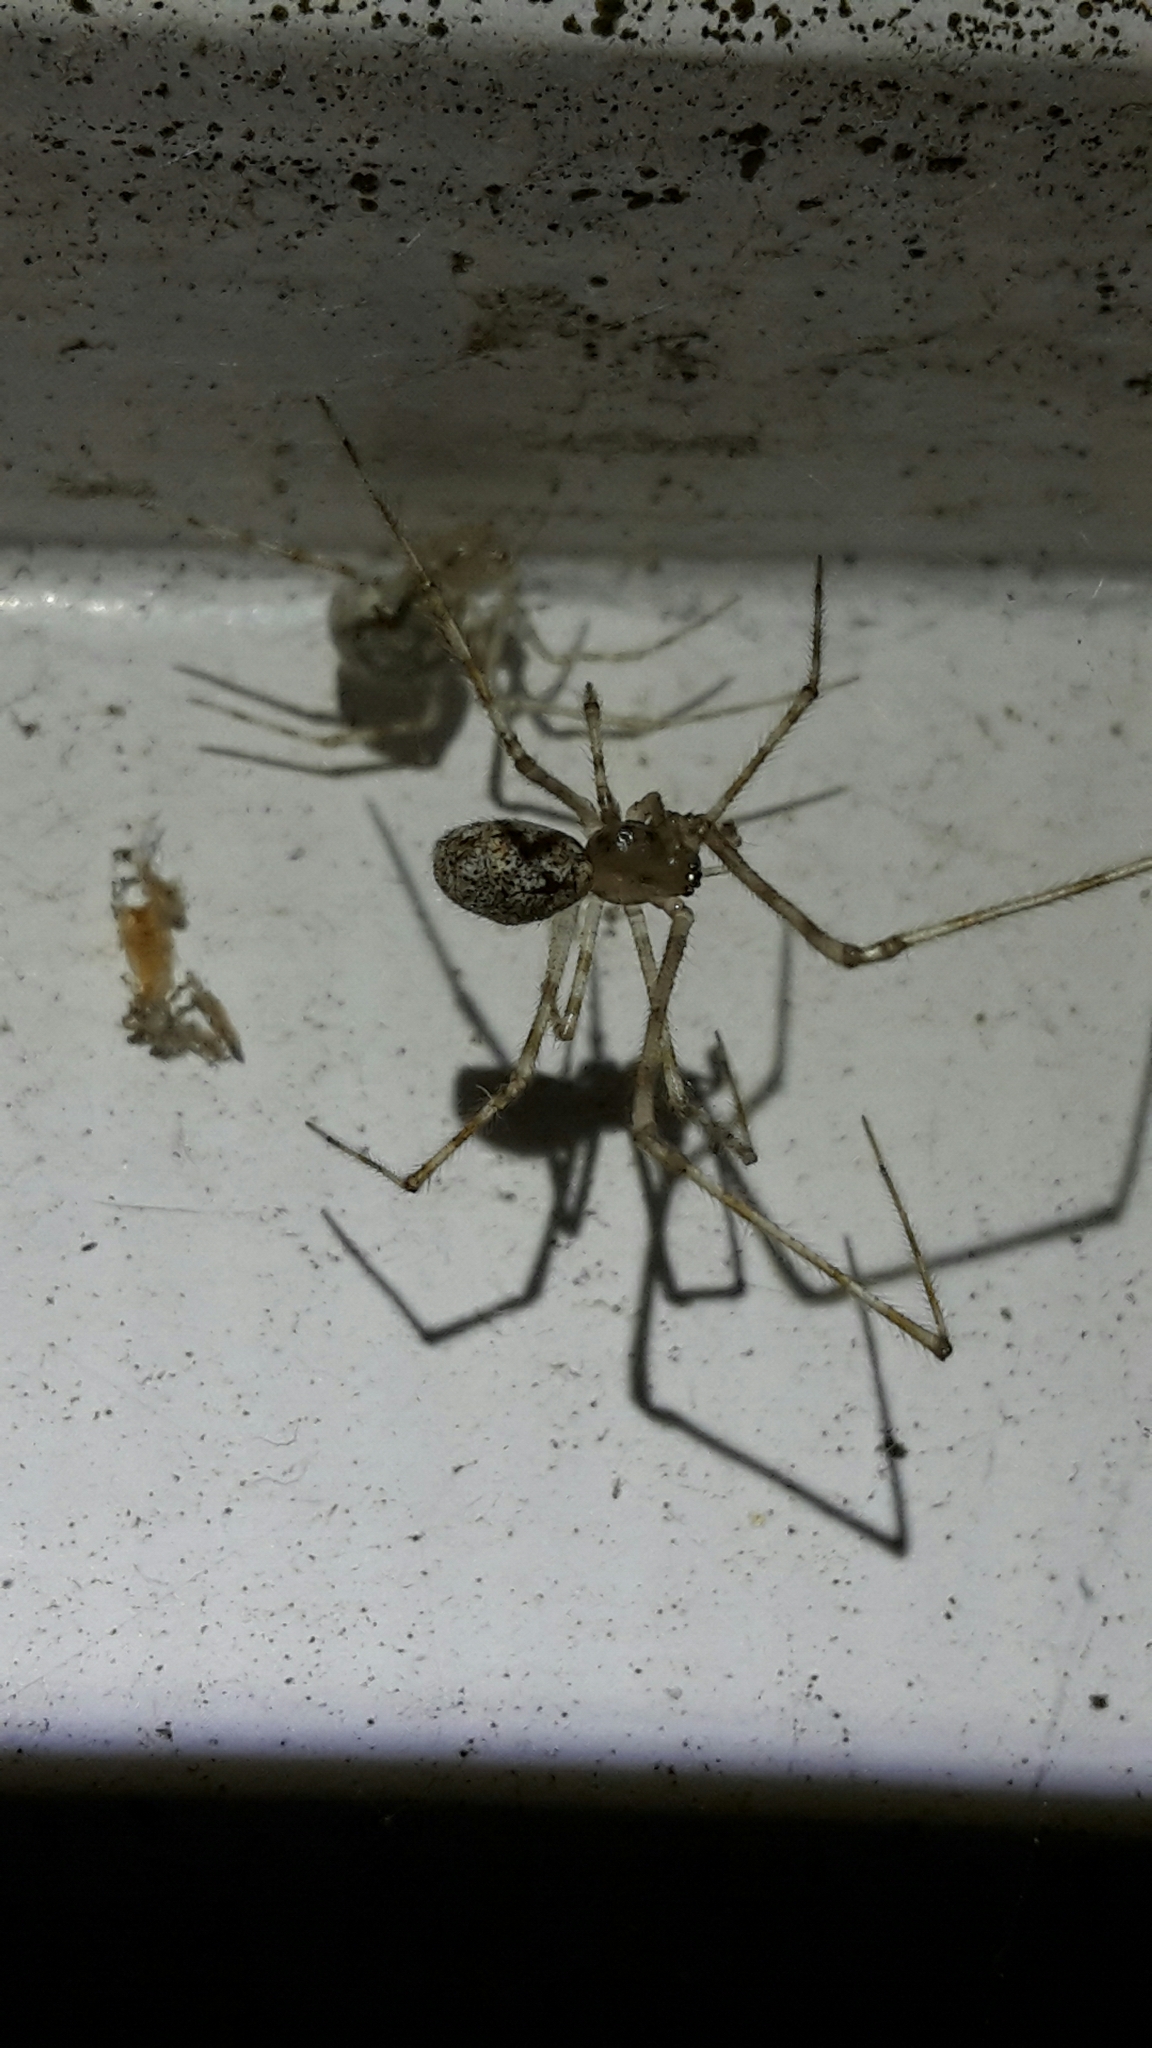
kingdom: Animalia
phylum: Arthropoda
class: Arachnida
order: Araneae
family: Theridiidae
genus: Cryptachaea
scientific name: Cryptachaea gigantipes
